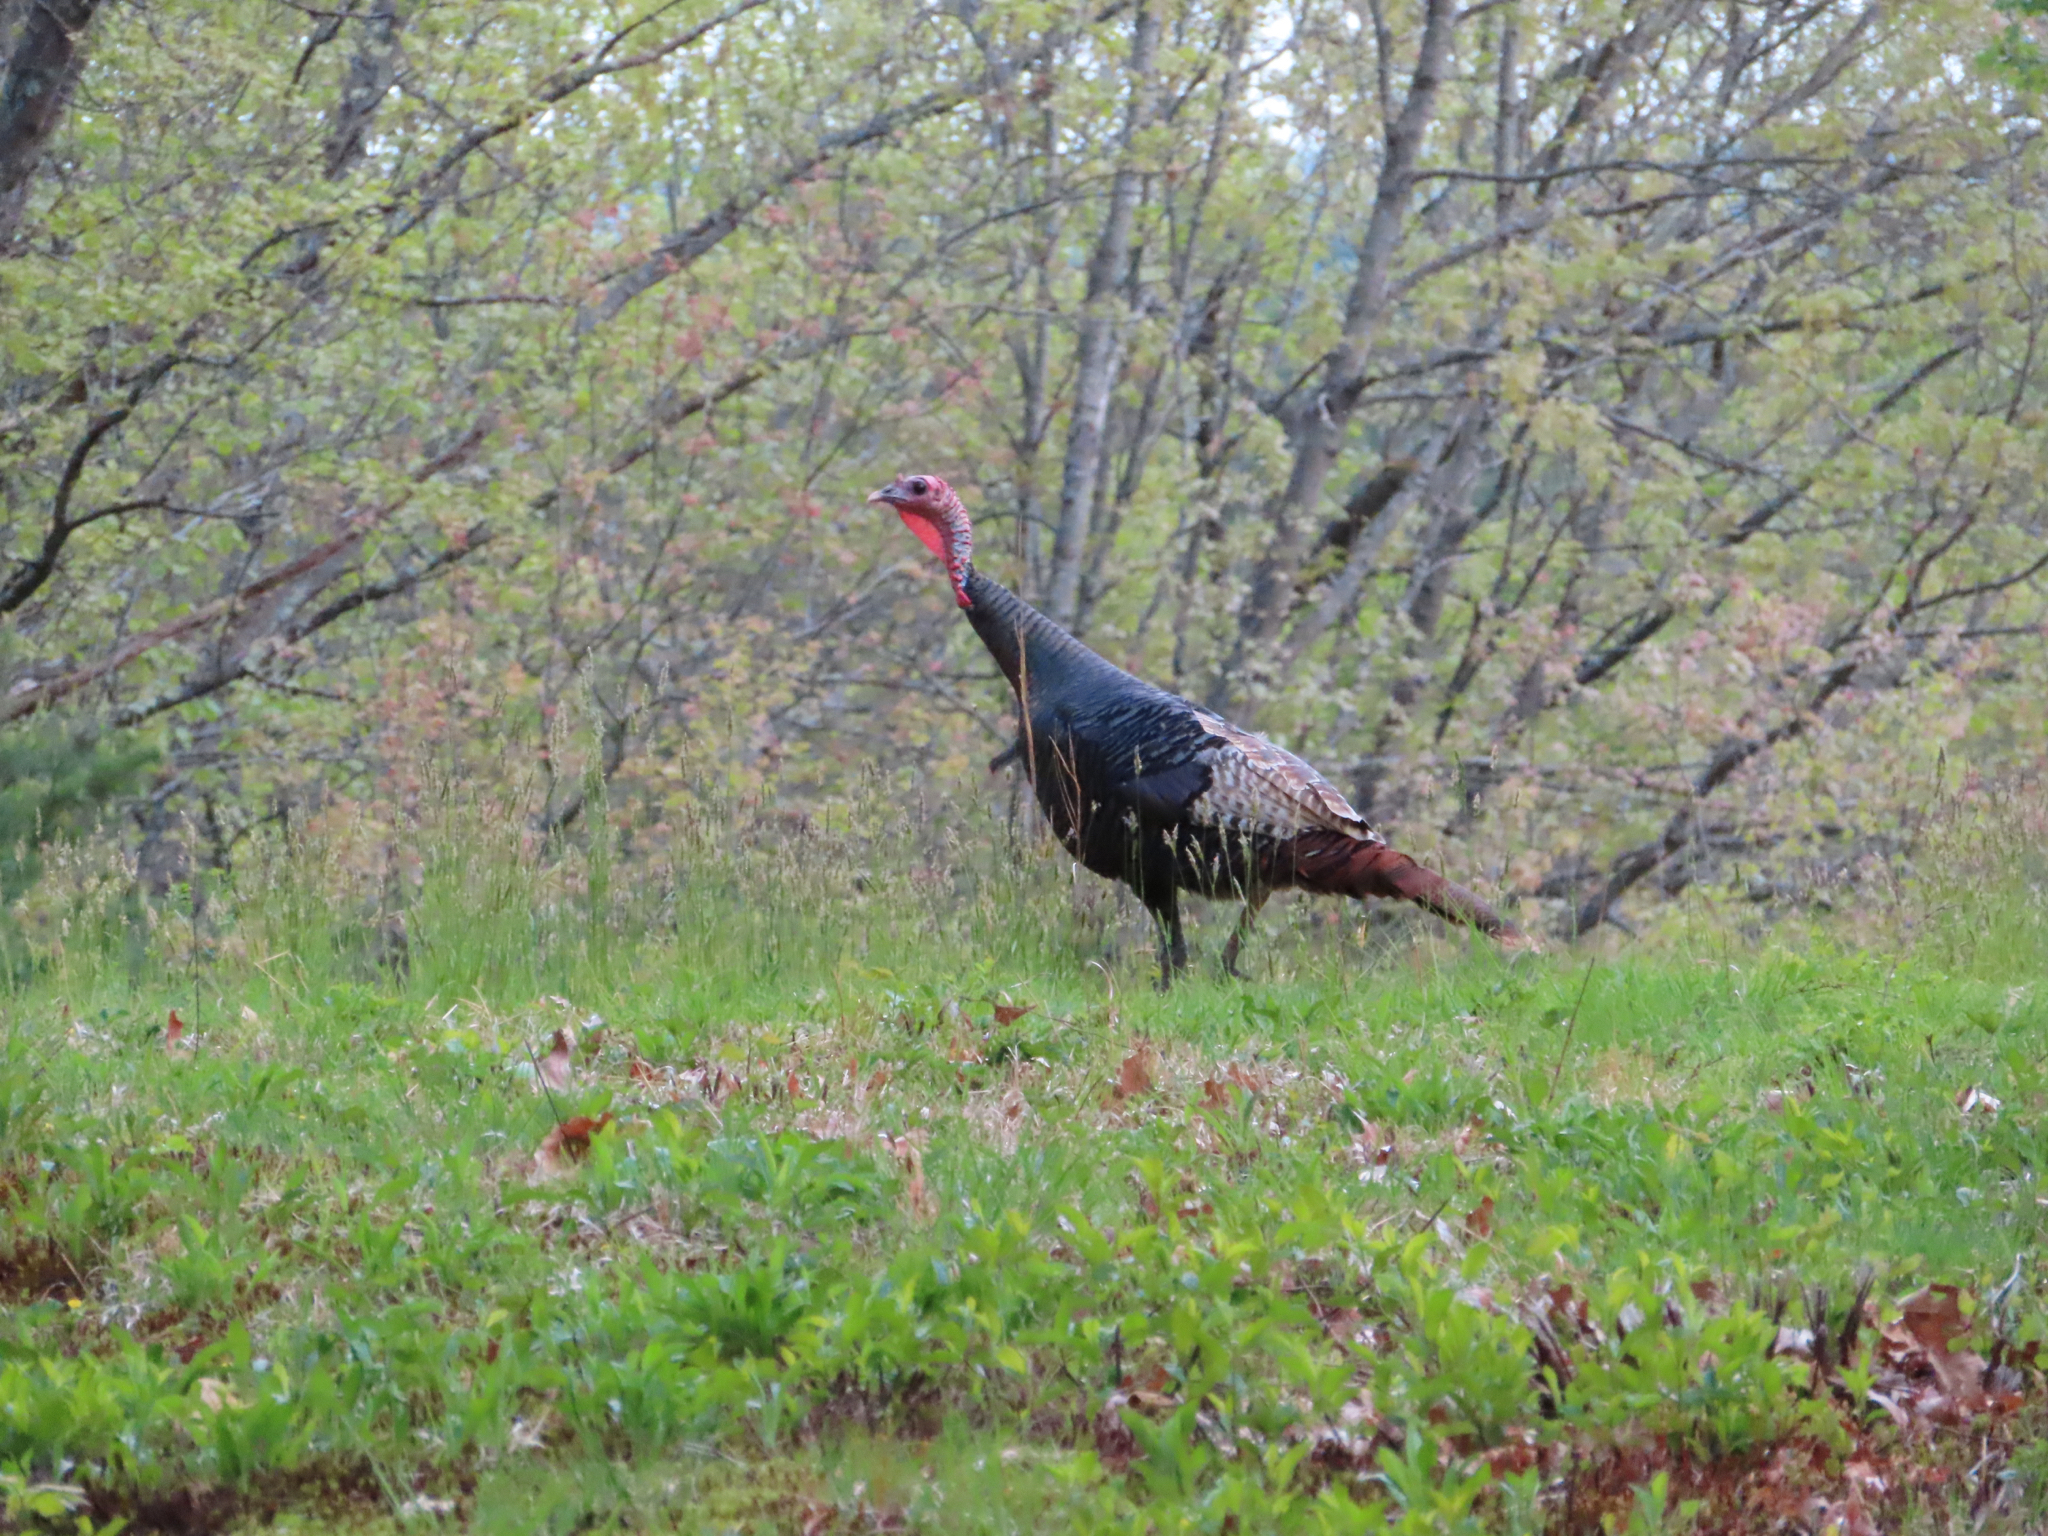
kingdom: Animalia
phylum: Chordata
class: Aves
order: Galliformes
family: Phasianidae
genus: Meleagris
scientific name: Meleagris gallopavo
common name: Wild turkey
